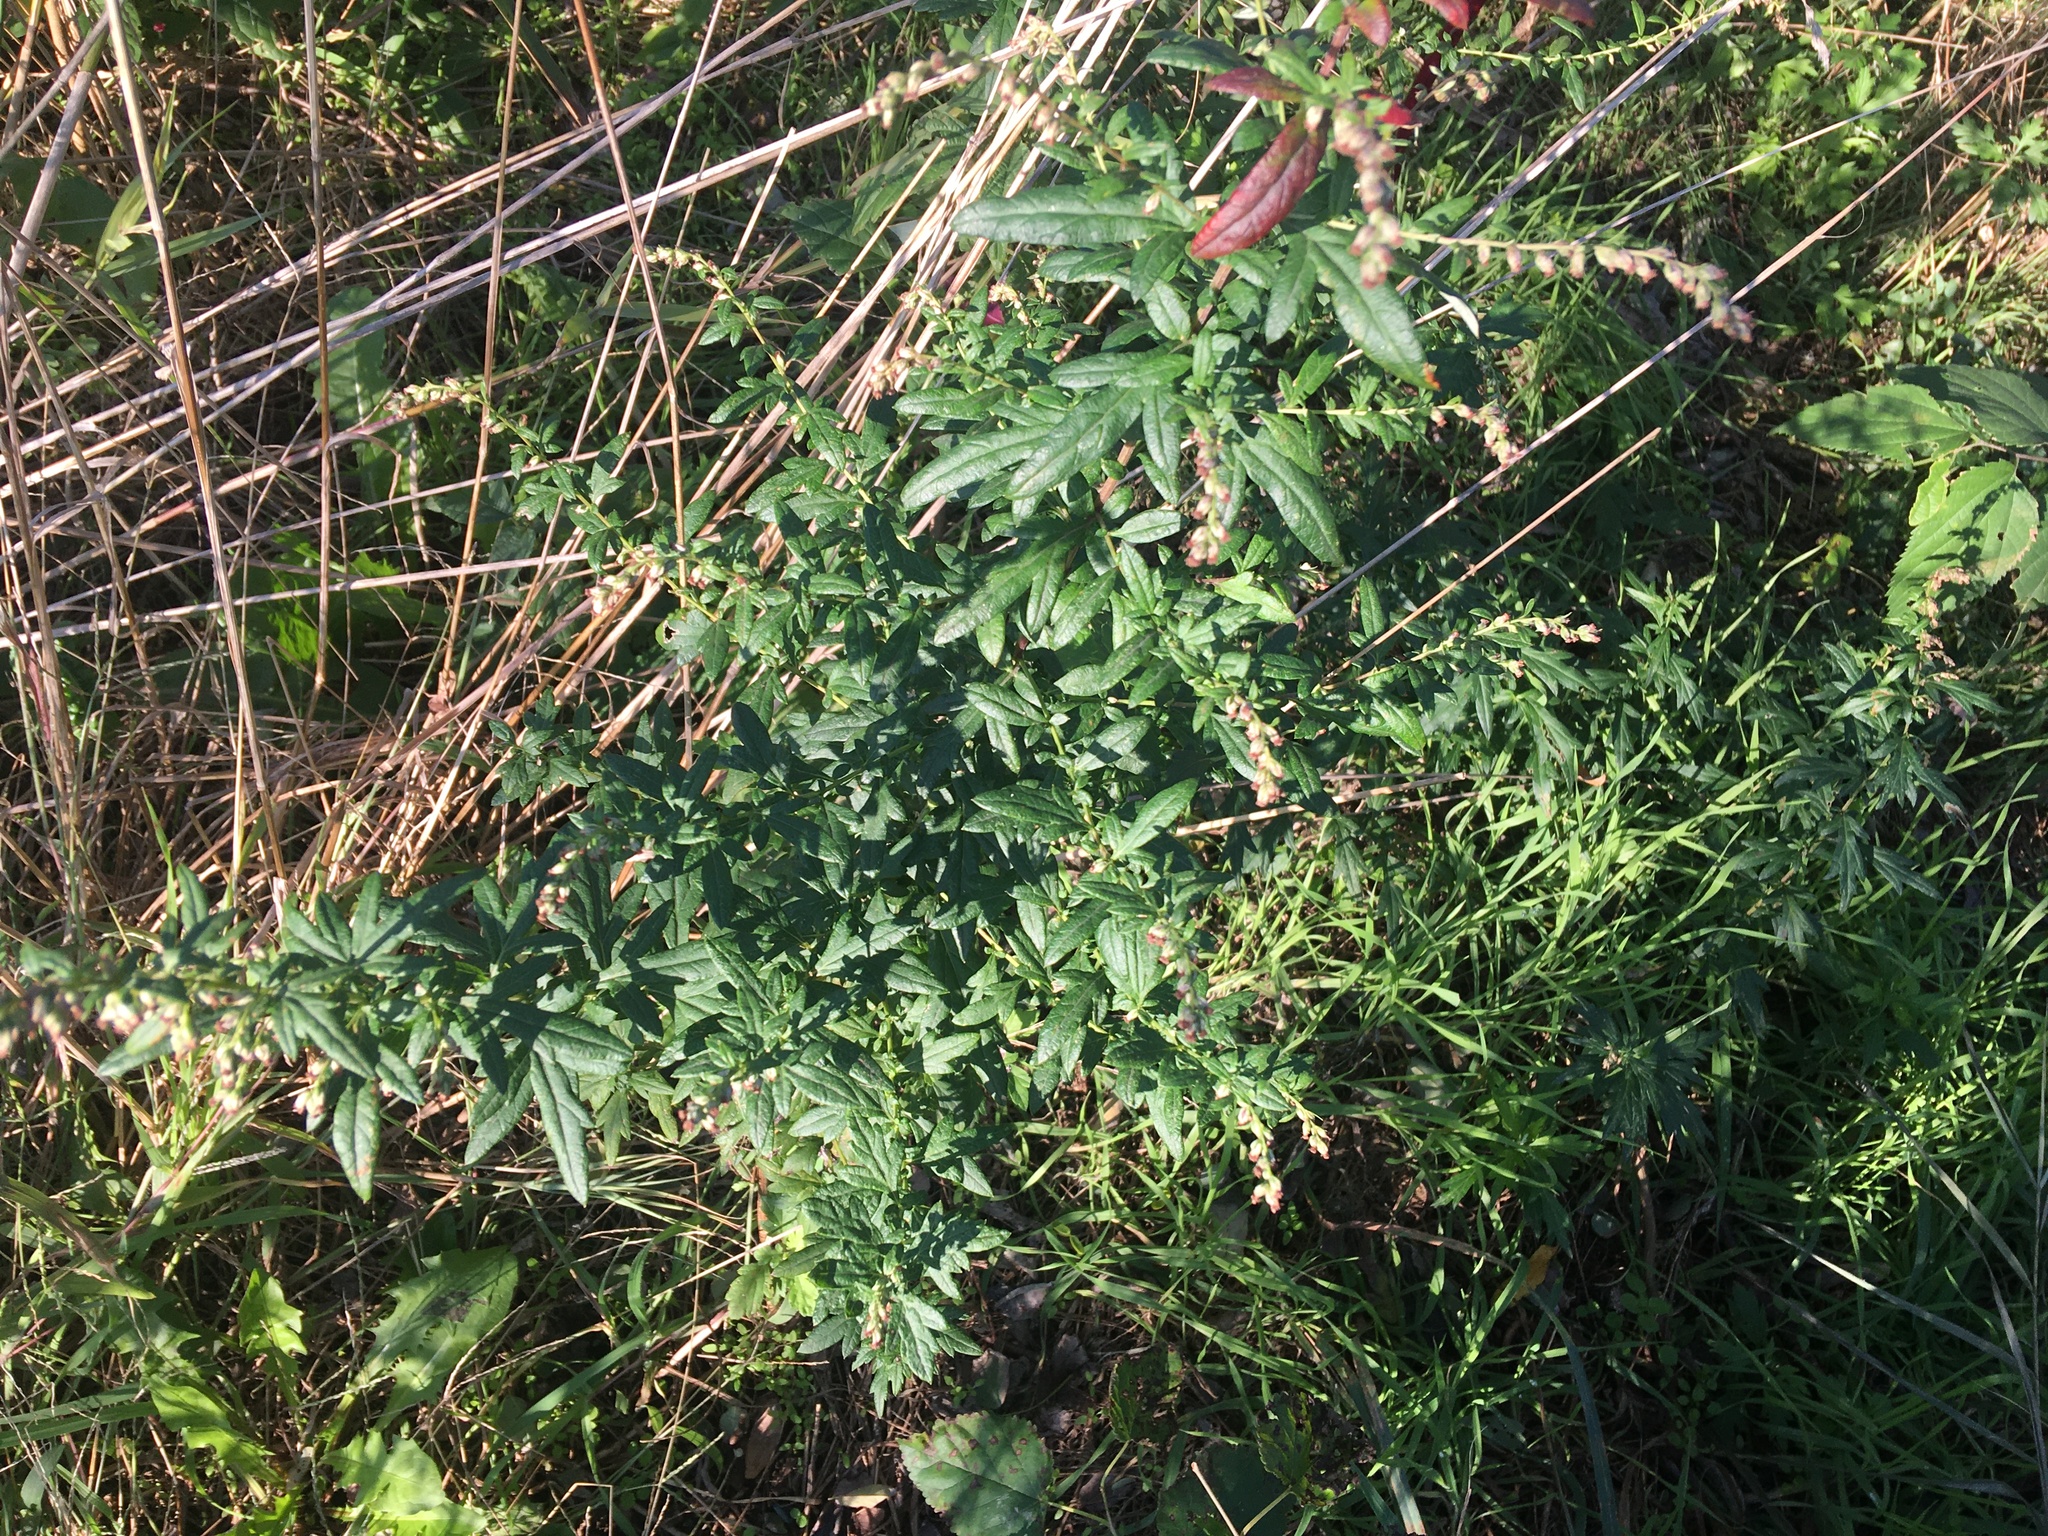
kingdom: Plantae
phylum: Tracheophyta
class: Magnoliopsida
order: Asterales
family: Asteraceae
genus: Artemisia
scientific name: Artemisia vulgaris
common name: Mugwort
